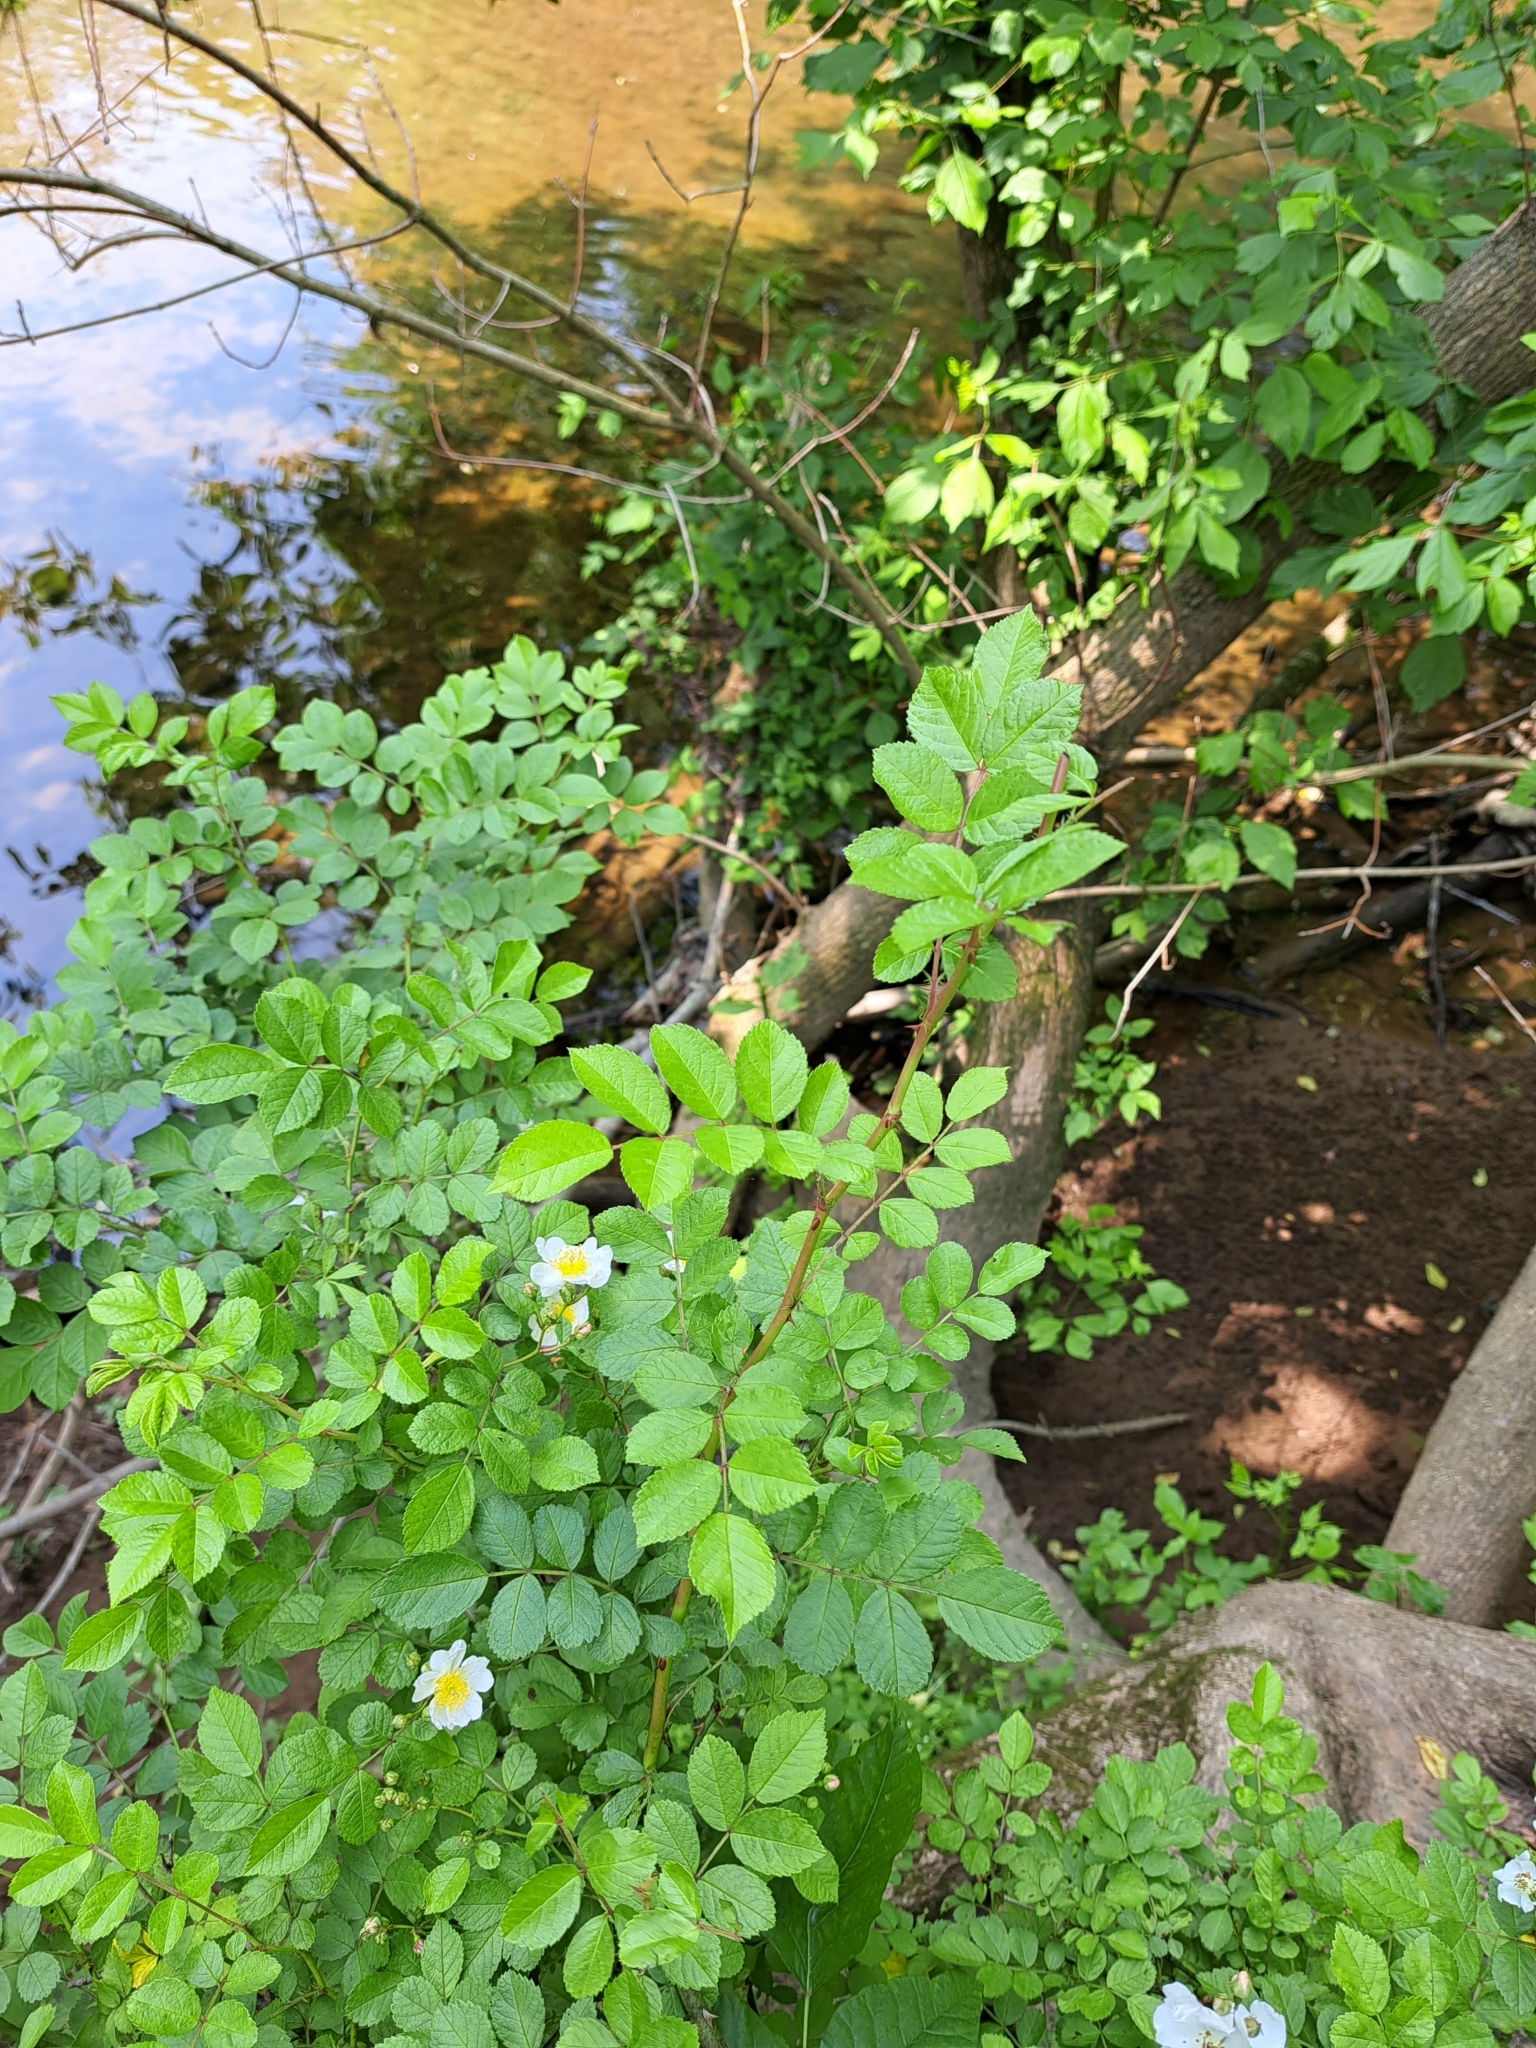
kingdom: Plantae
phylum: Tracheophyta
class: Magnoliopsida
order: Rosales
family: Rosaceae
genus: Rosa
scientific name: Rosa multiflora
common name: Multiflora rose
